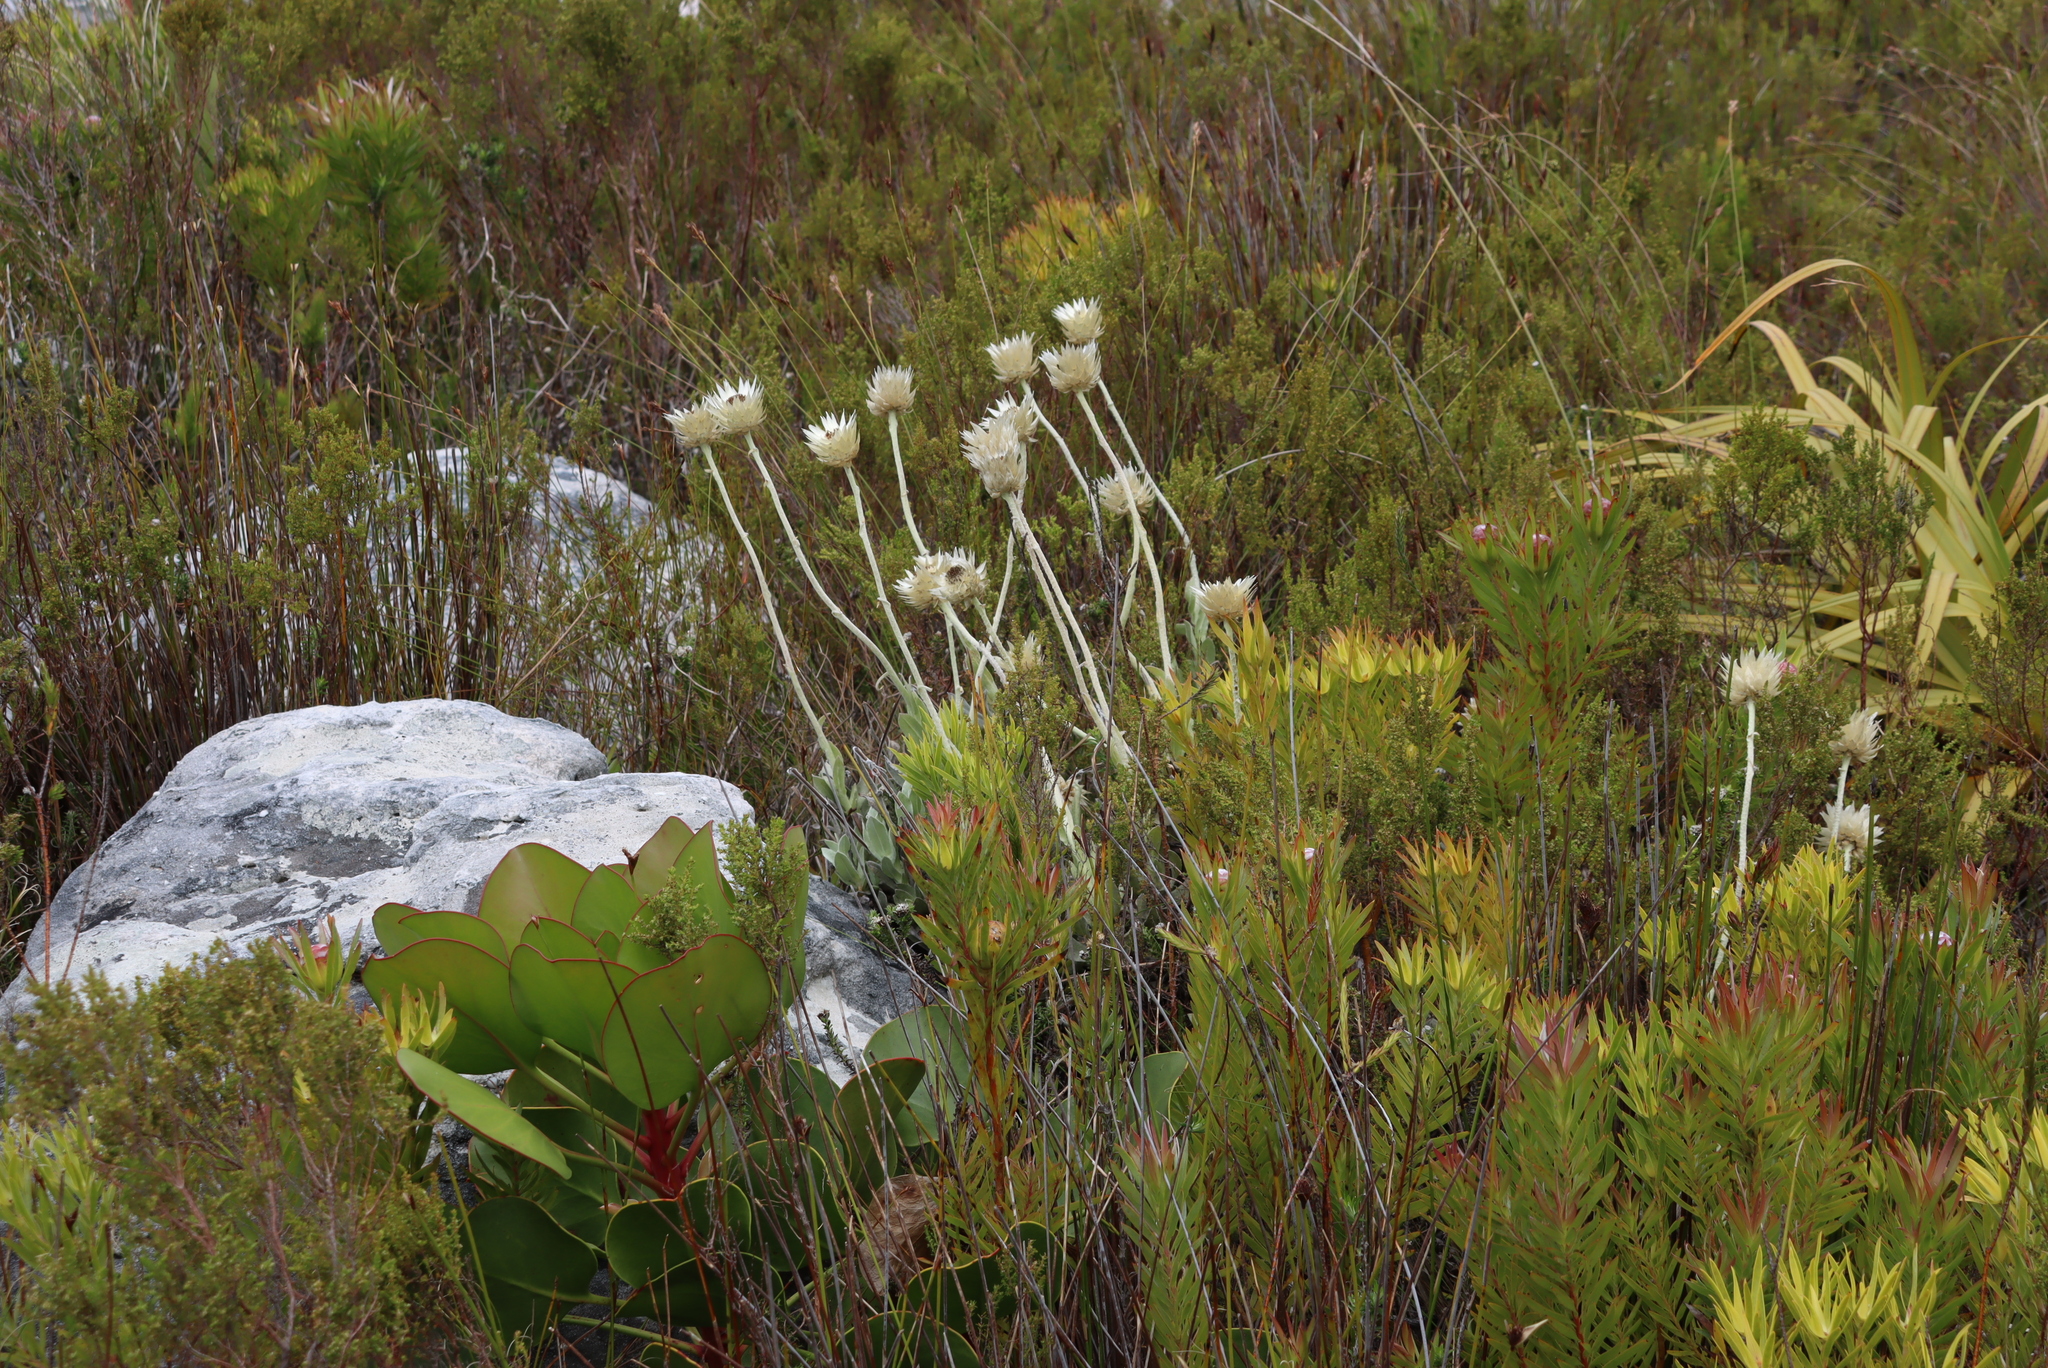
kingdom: Plantae
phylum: Tracheophyta
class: Magnoliopsida
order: Asterales
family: Asteraceae
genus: Syncarpha
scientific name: Syncarpha speciosissima
